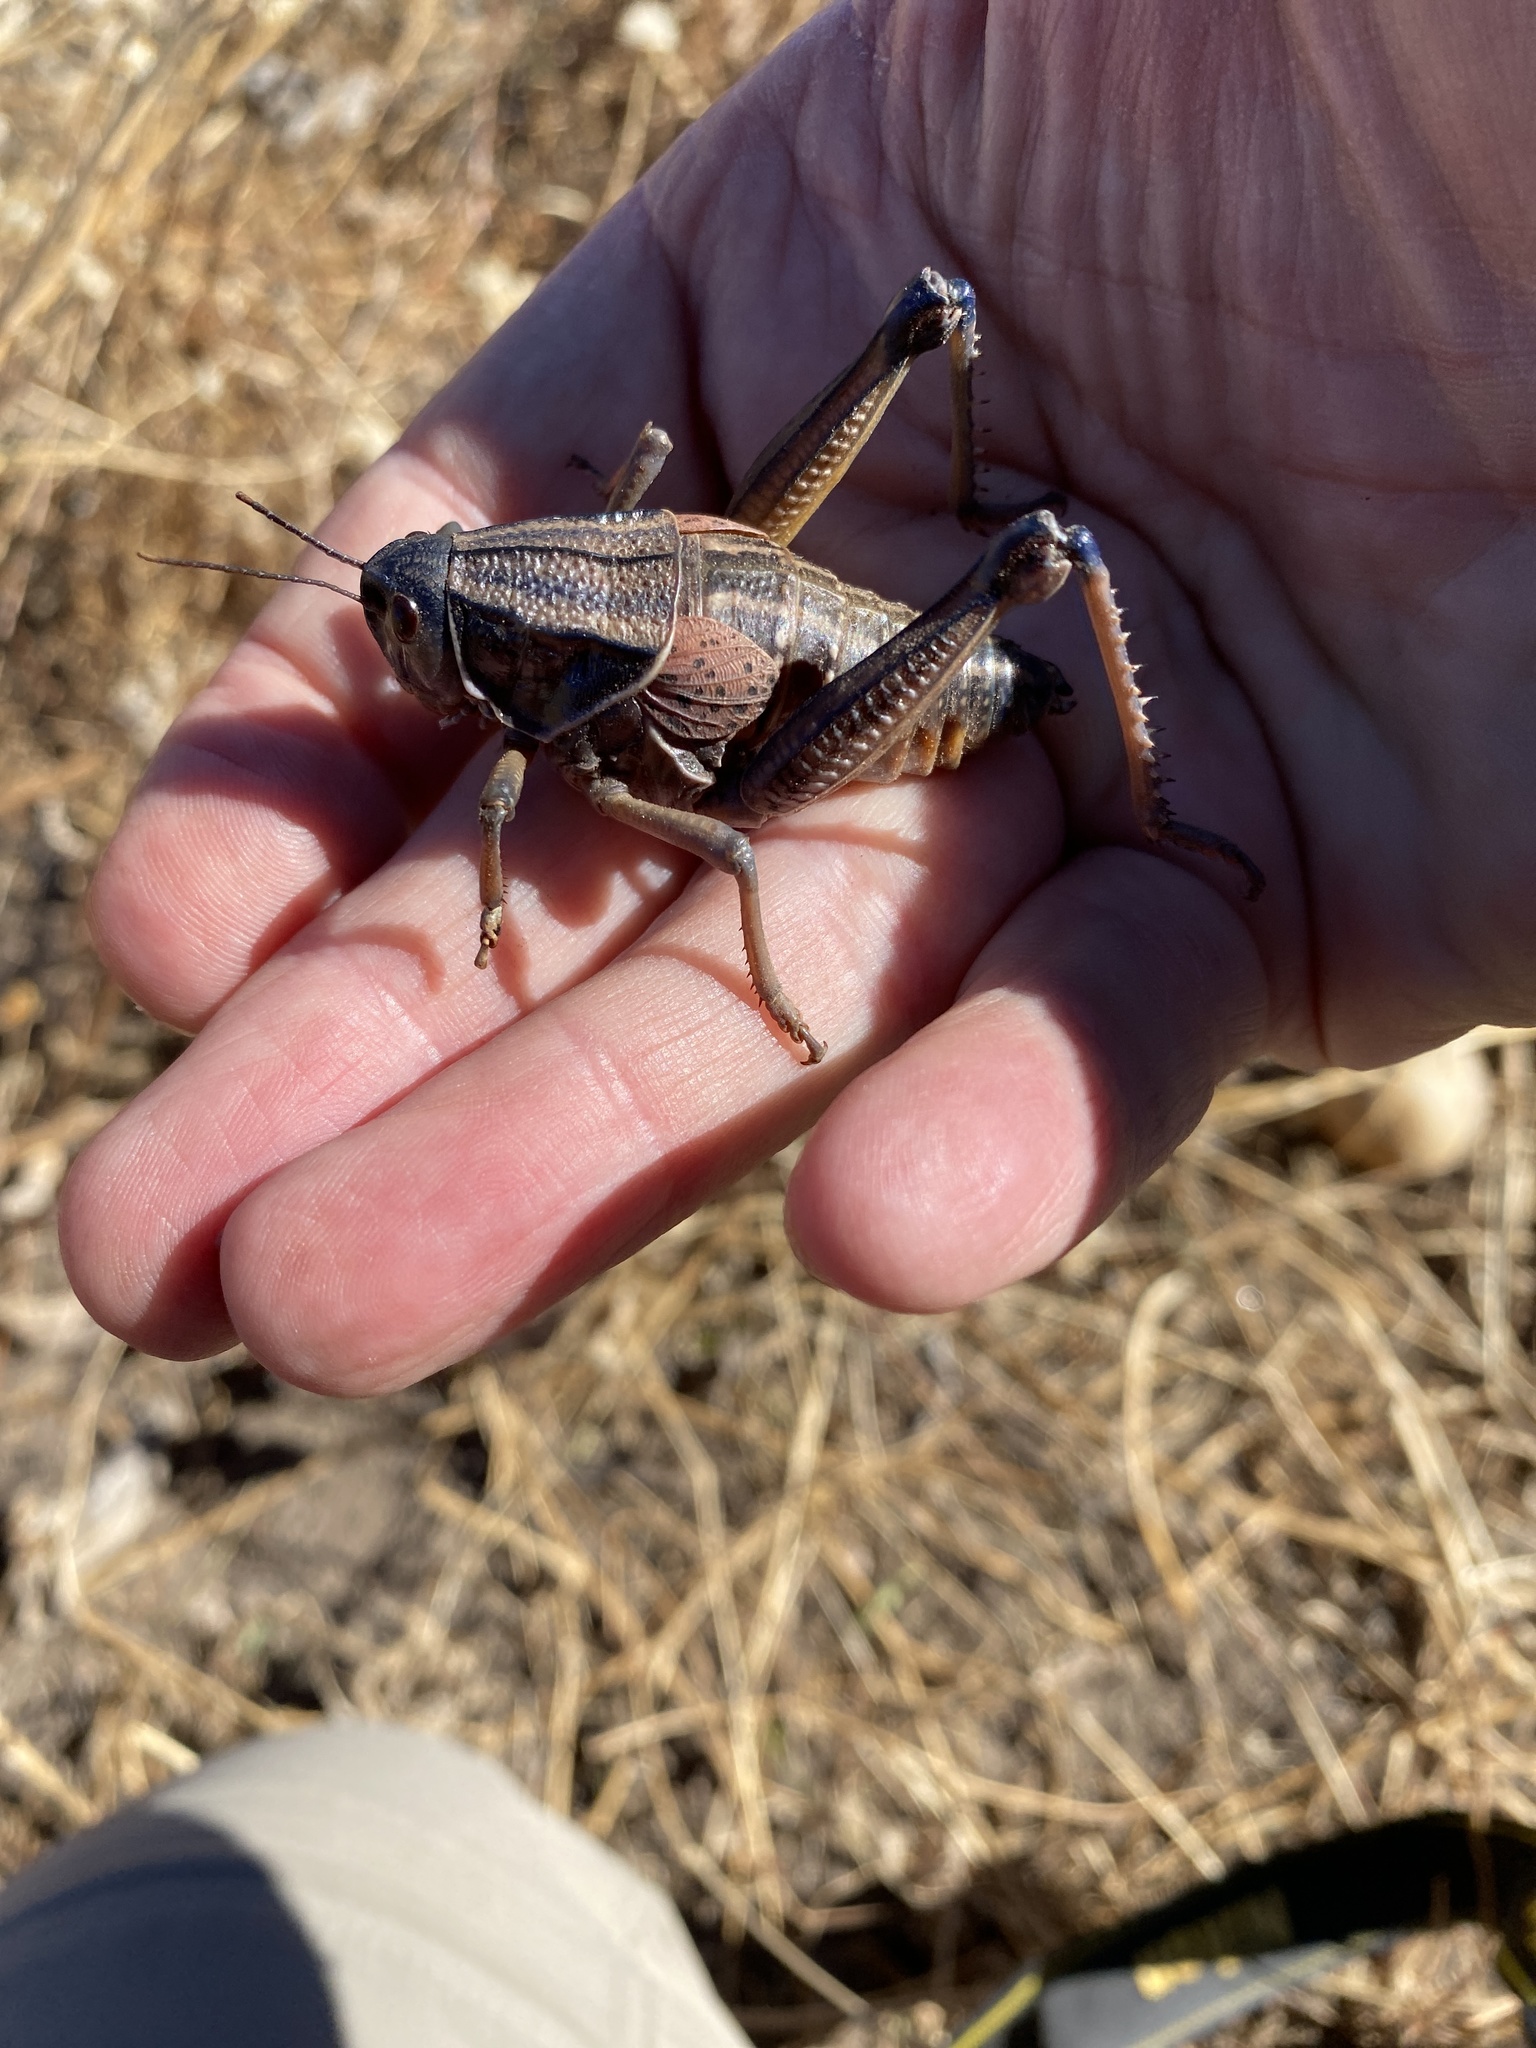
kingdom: Animalia
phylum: Arthropoda
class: Insecta
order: Orthoptera
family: Romaleidae
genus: Brachystola
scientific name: Brachystola magna
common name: Plains lubber grasshopper
